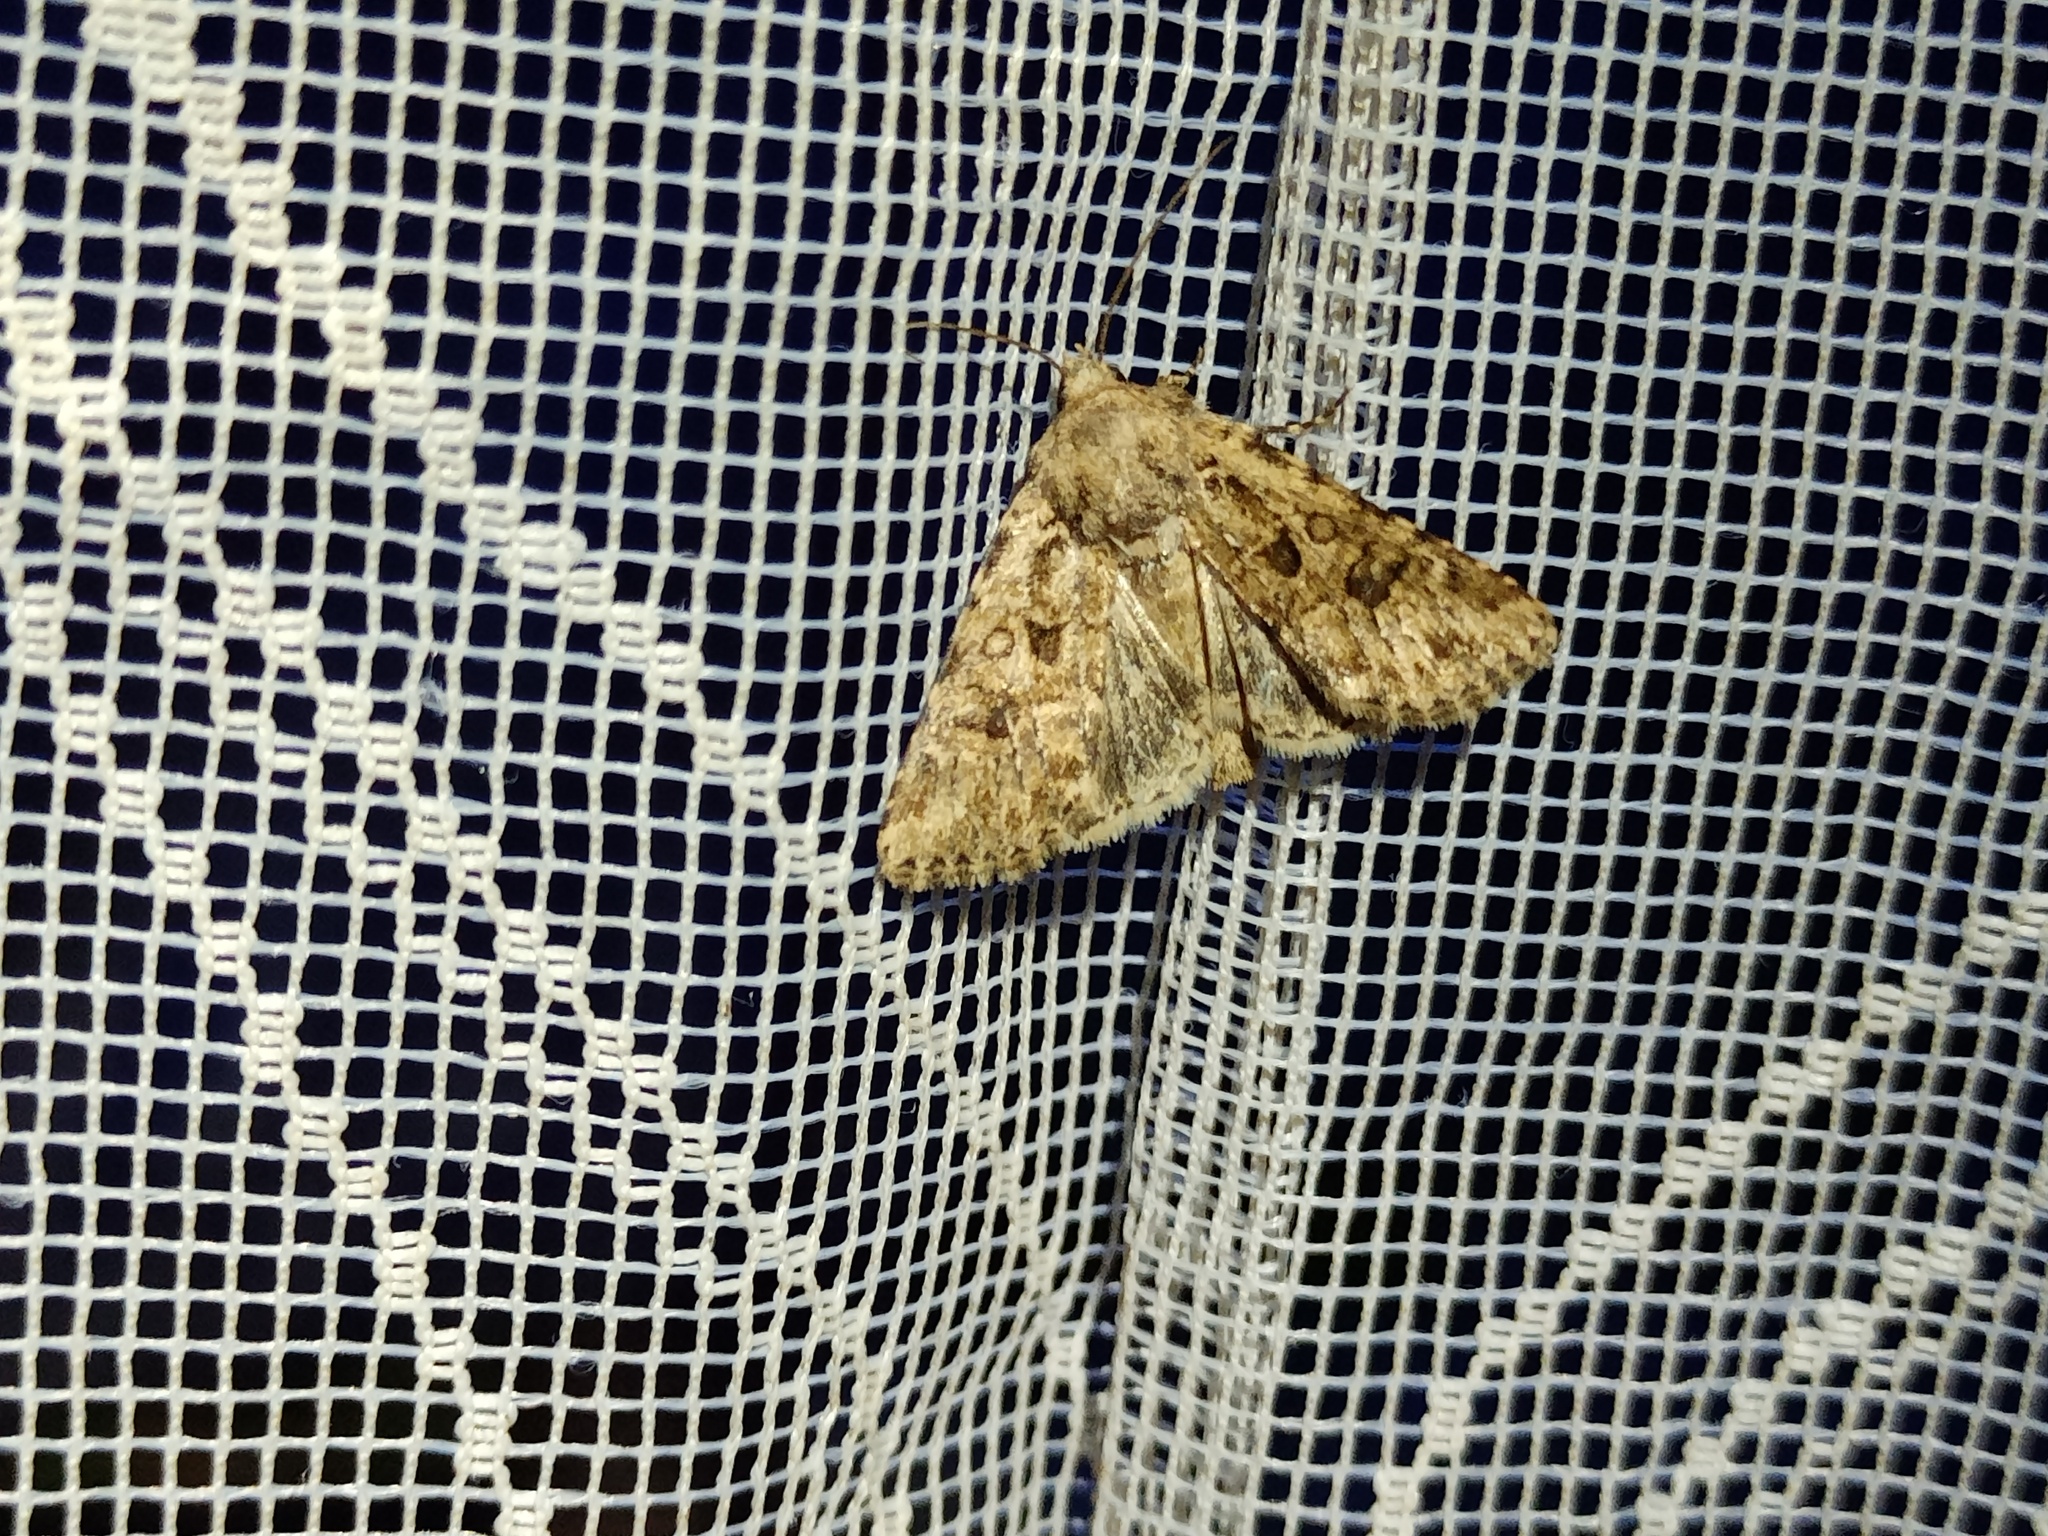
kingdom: Animalia
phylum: Arthropoda
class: Insecta
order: Lepidoptera
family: Noctuidae
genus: Anarta
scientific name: Anarta sodae
